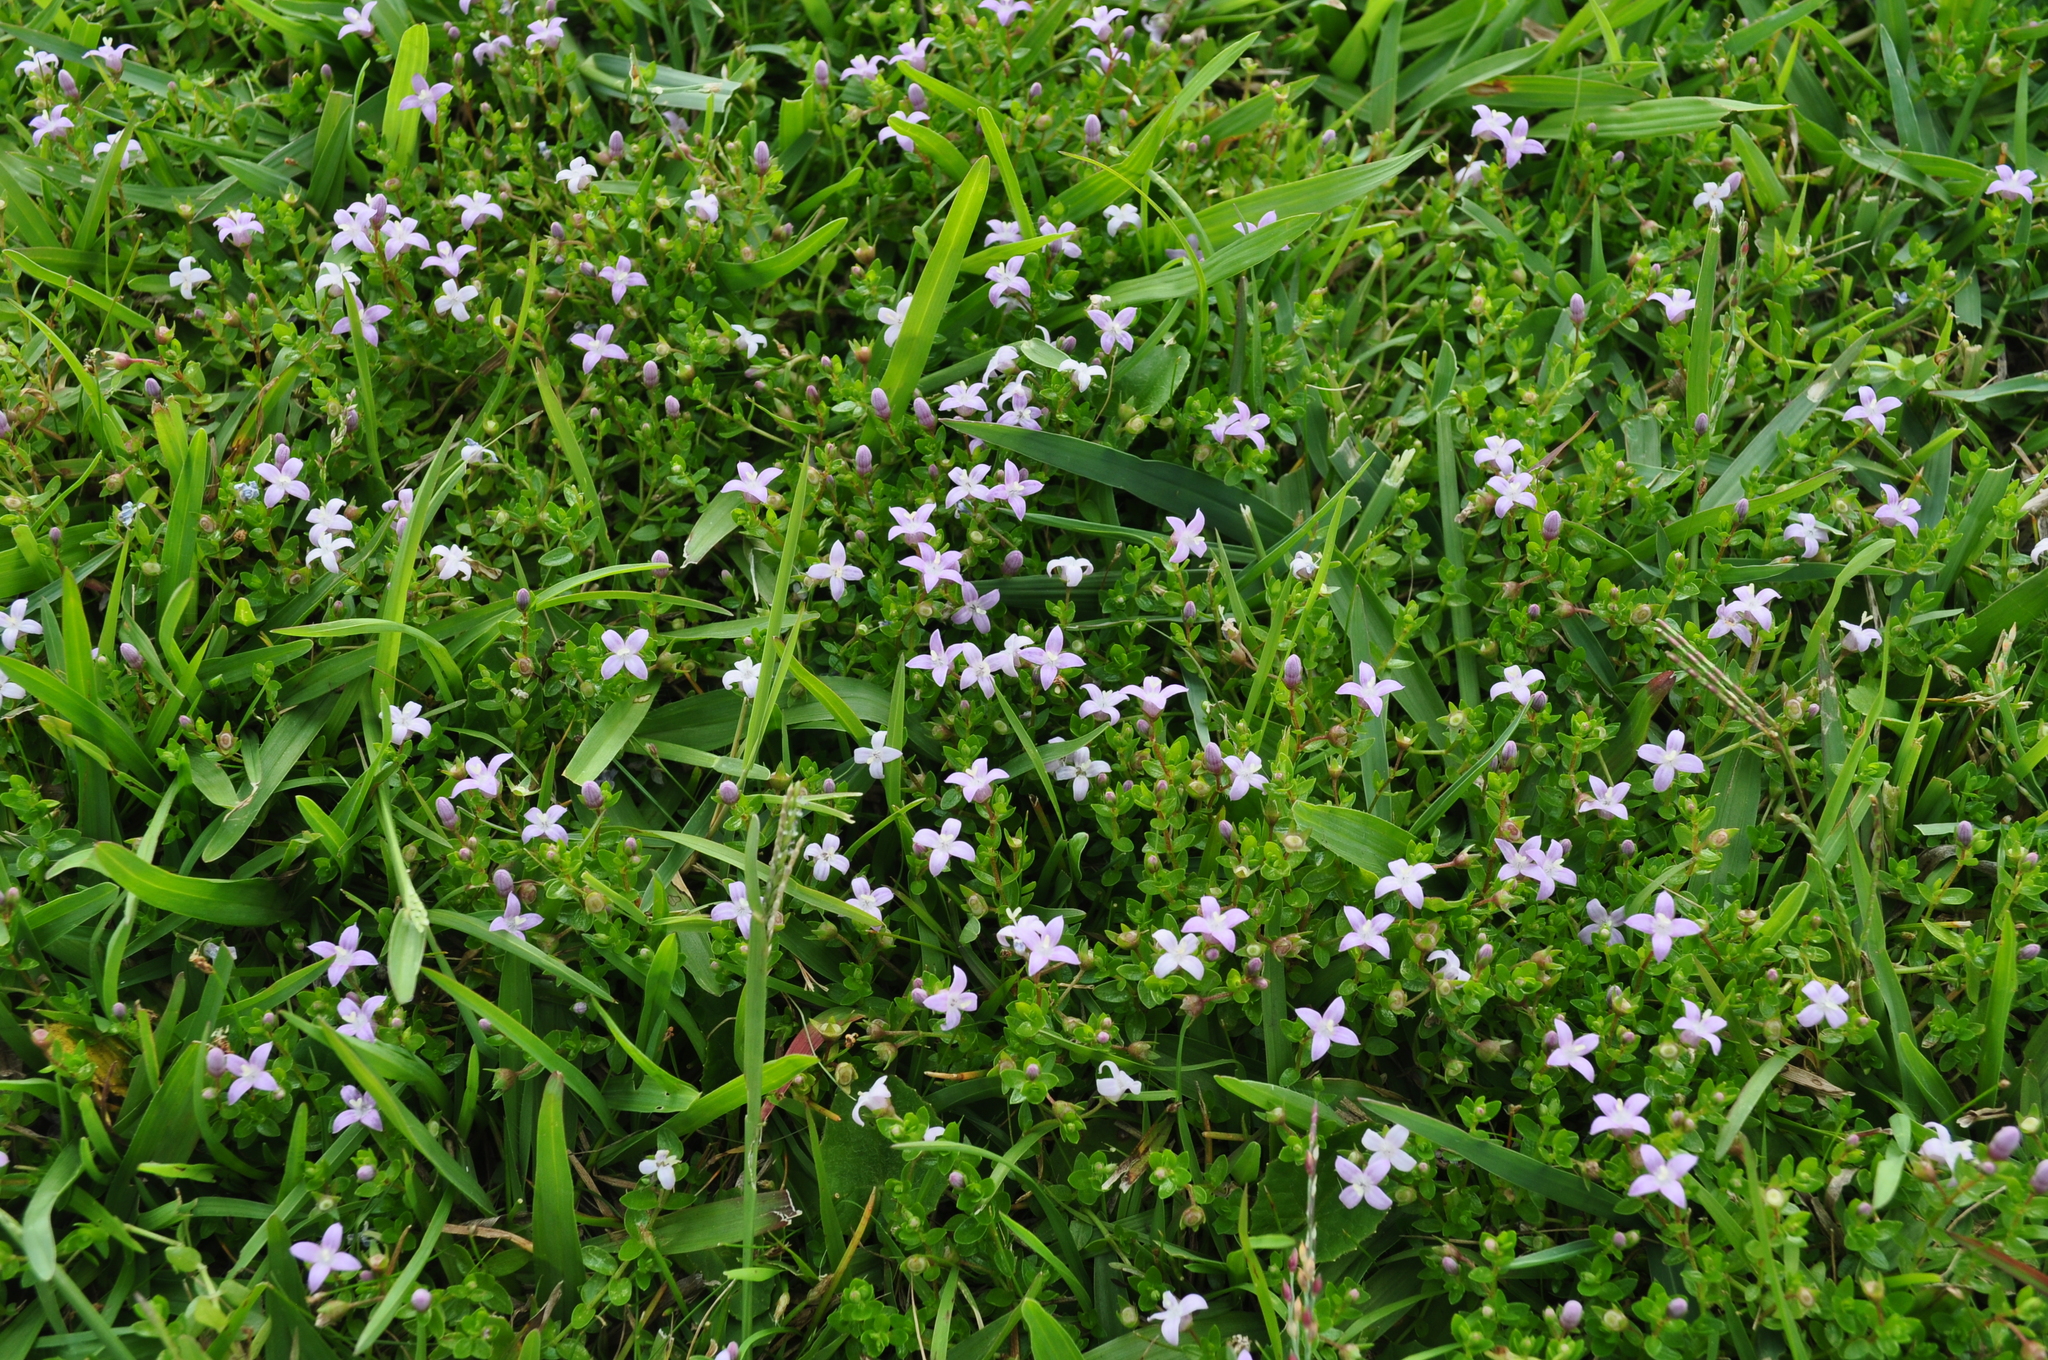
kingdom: Plantae
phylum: Tracheophyta
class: Magnoliopsida
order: Gentianales
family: Rubiaceae
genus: Oldenlandia
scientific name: Oldenlandia salzmannii
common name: Salzmann's mille graines
